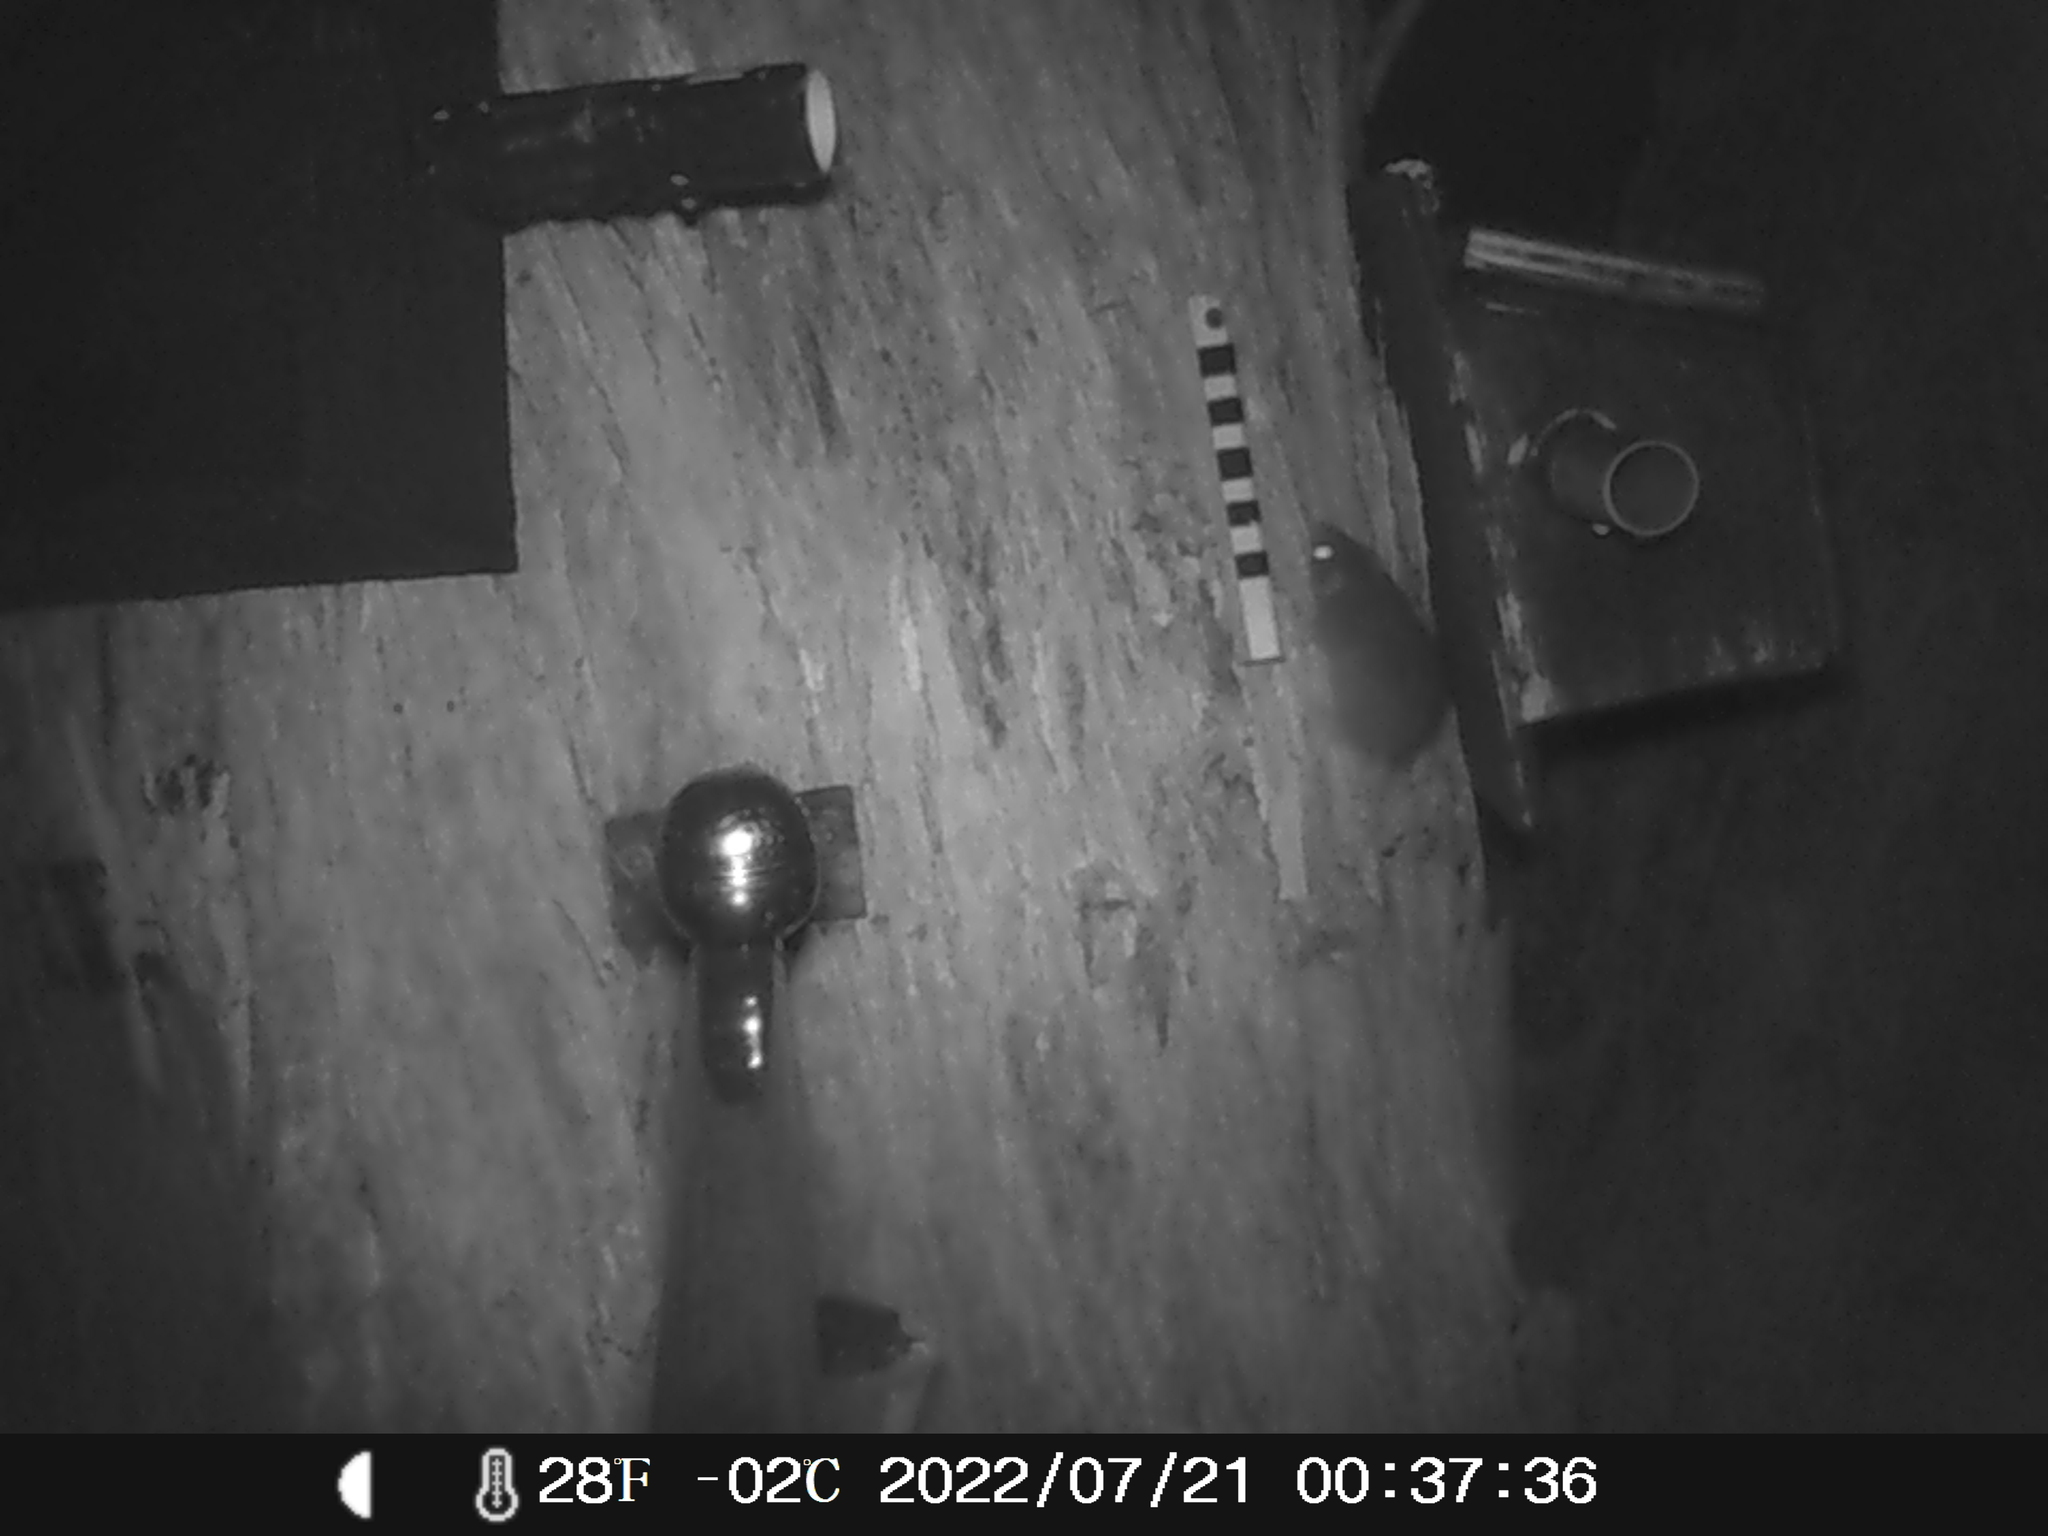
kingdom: Animalia
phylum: Chordata
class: Mammalia
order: Dasyuromorphia
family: Dasyuridae
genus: Antechinus
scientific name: Antechinus agilis
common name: Agile antechinus
